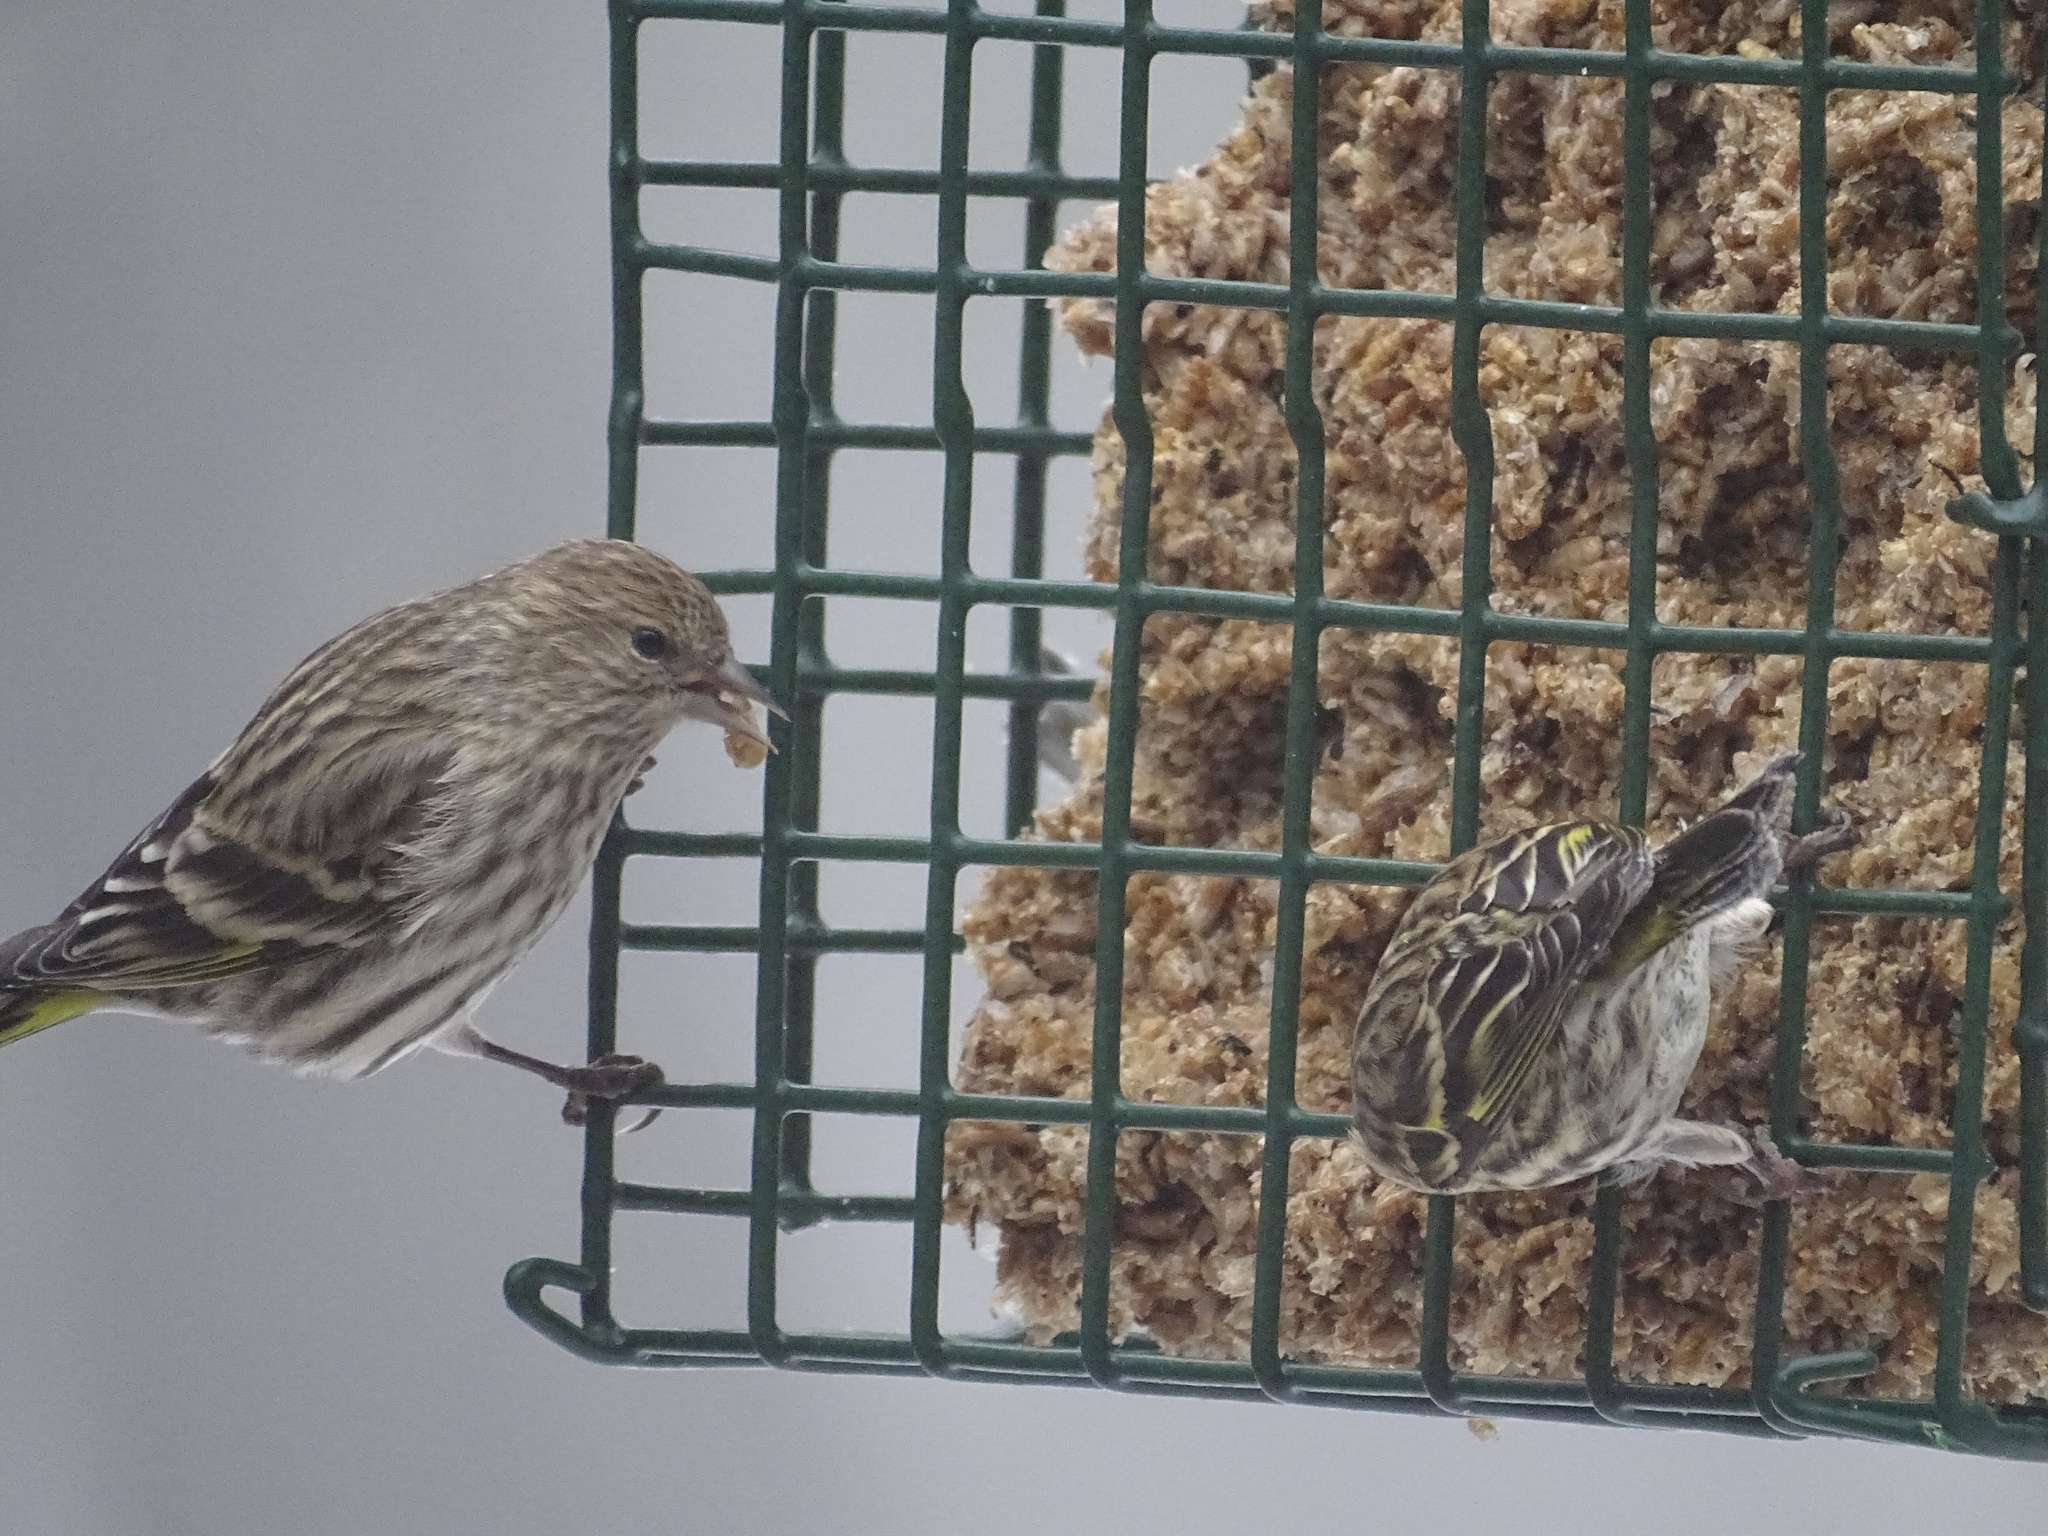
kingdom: Animalia
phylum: Chordata
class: Aves
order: Passeriformes
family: Fringillidae
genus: Spinus
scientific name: Spinus pinus
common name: Pine siskin
